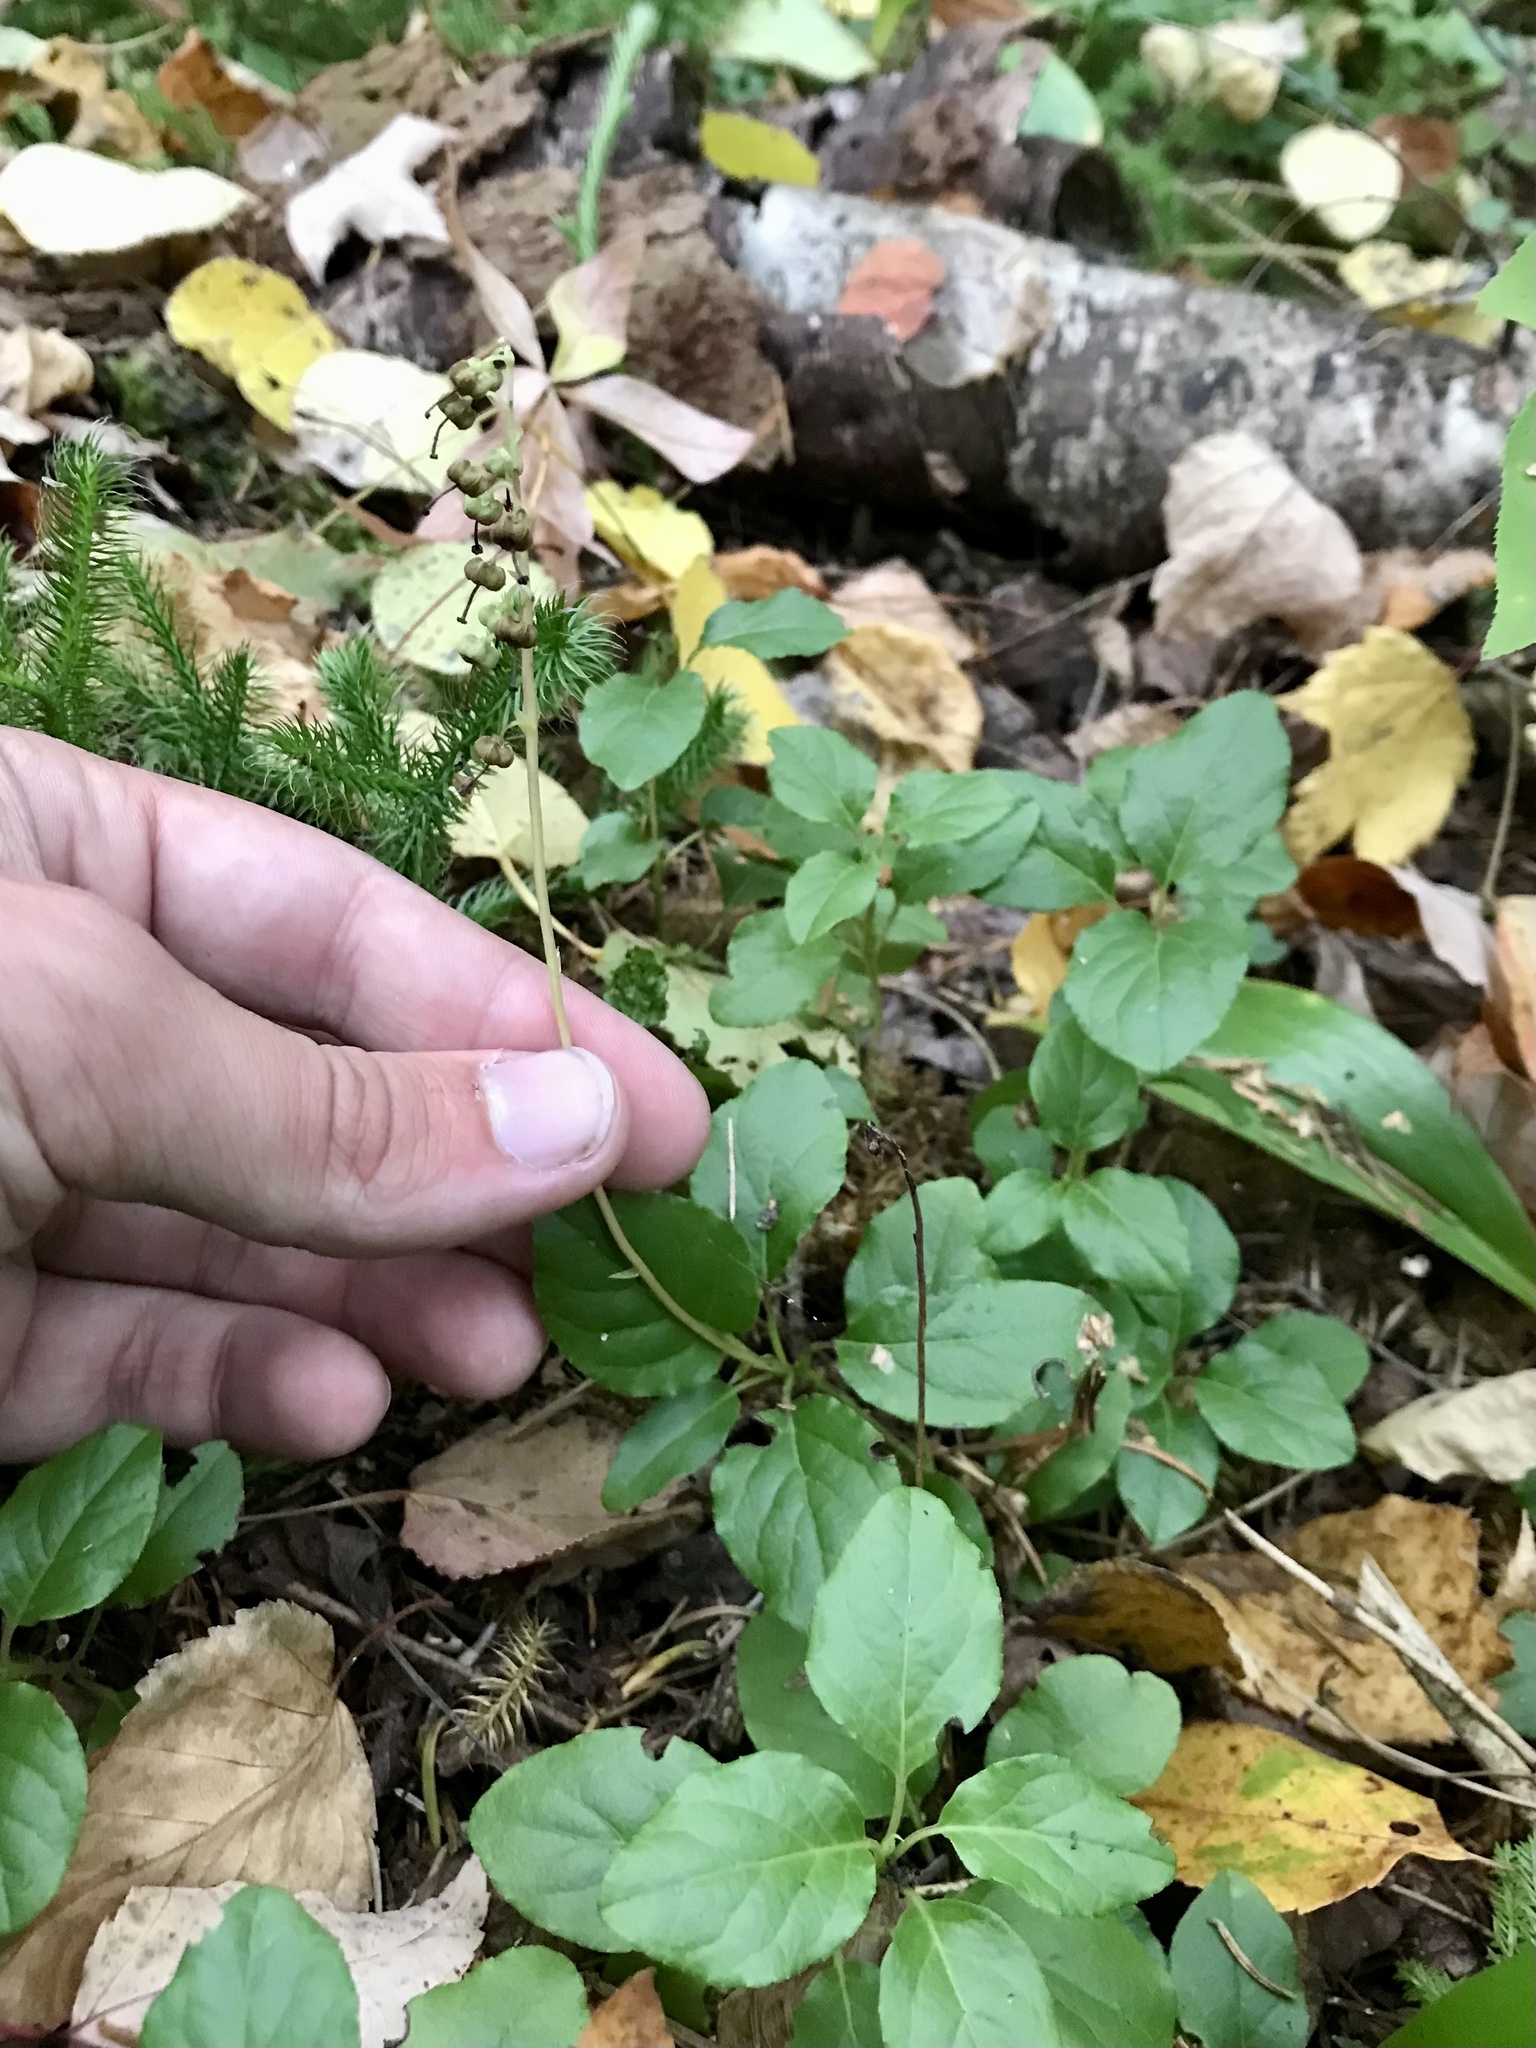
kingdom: Plantae
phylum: Tracheophyta
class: Magnoliopsida
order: Ericales
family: Ericaceae
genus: Orthilia
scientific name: Orthilia secunda
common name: One-sided orthilia
